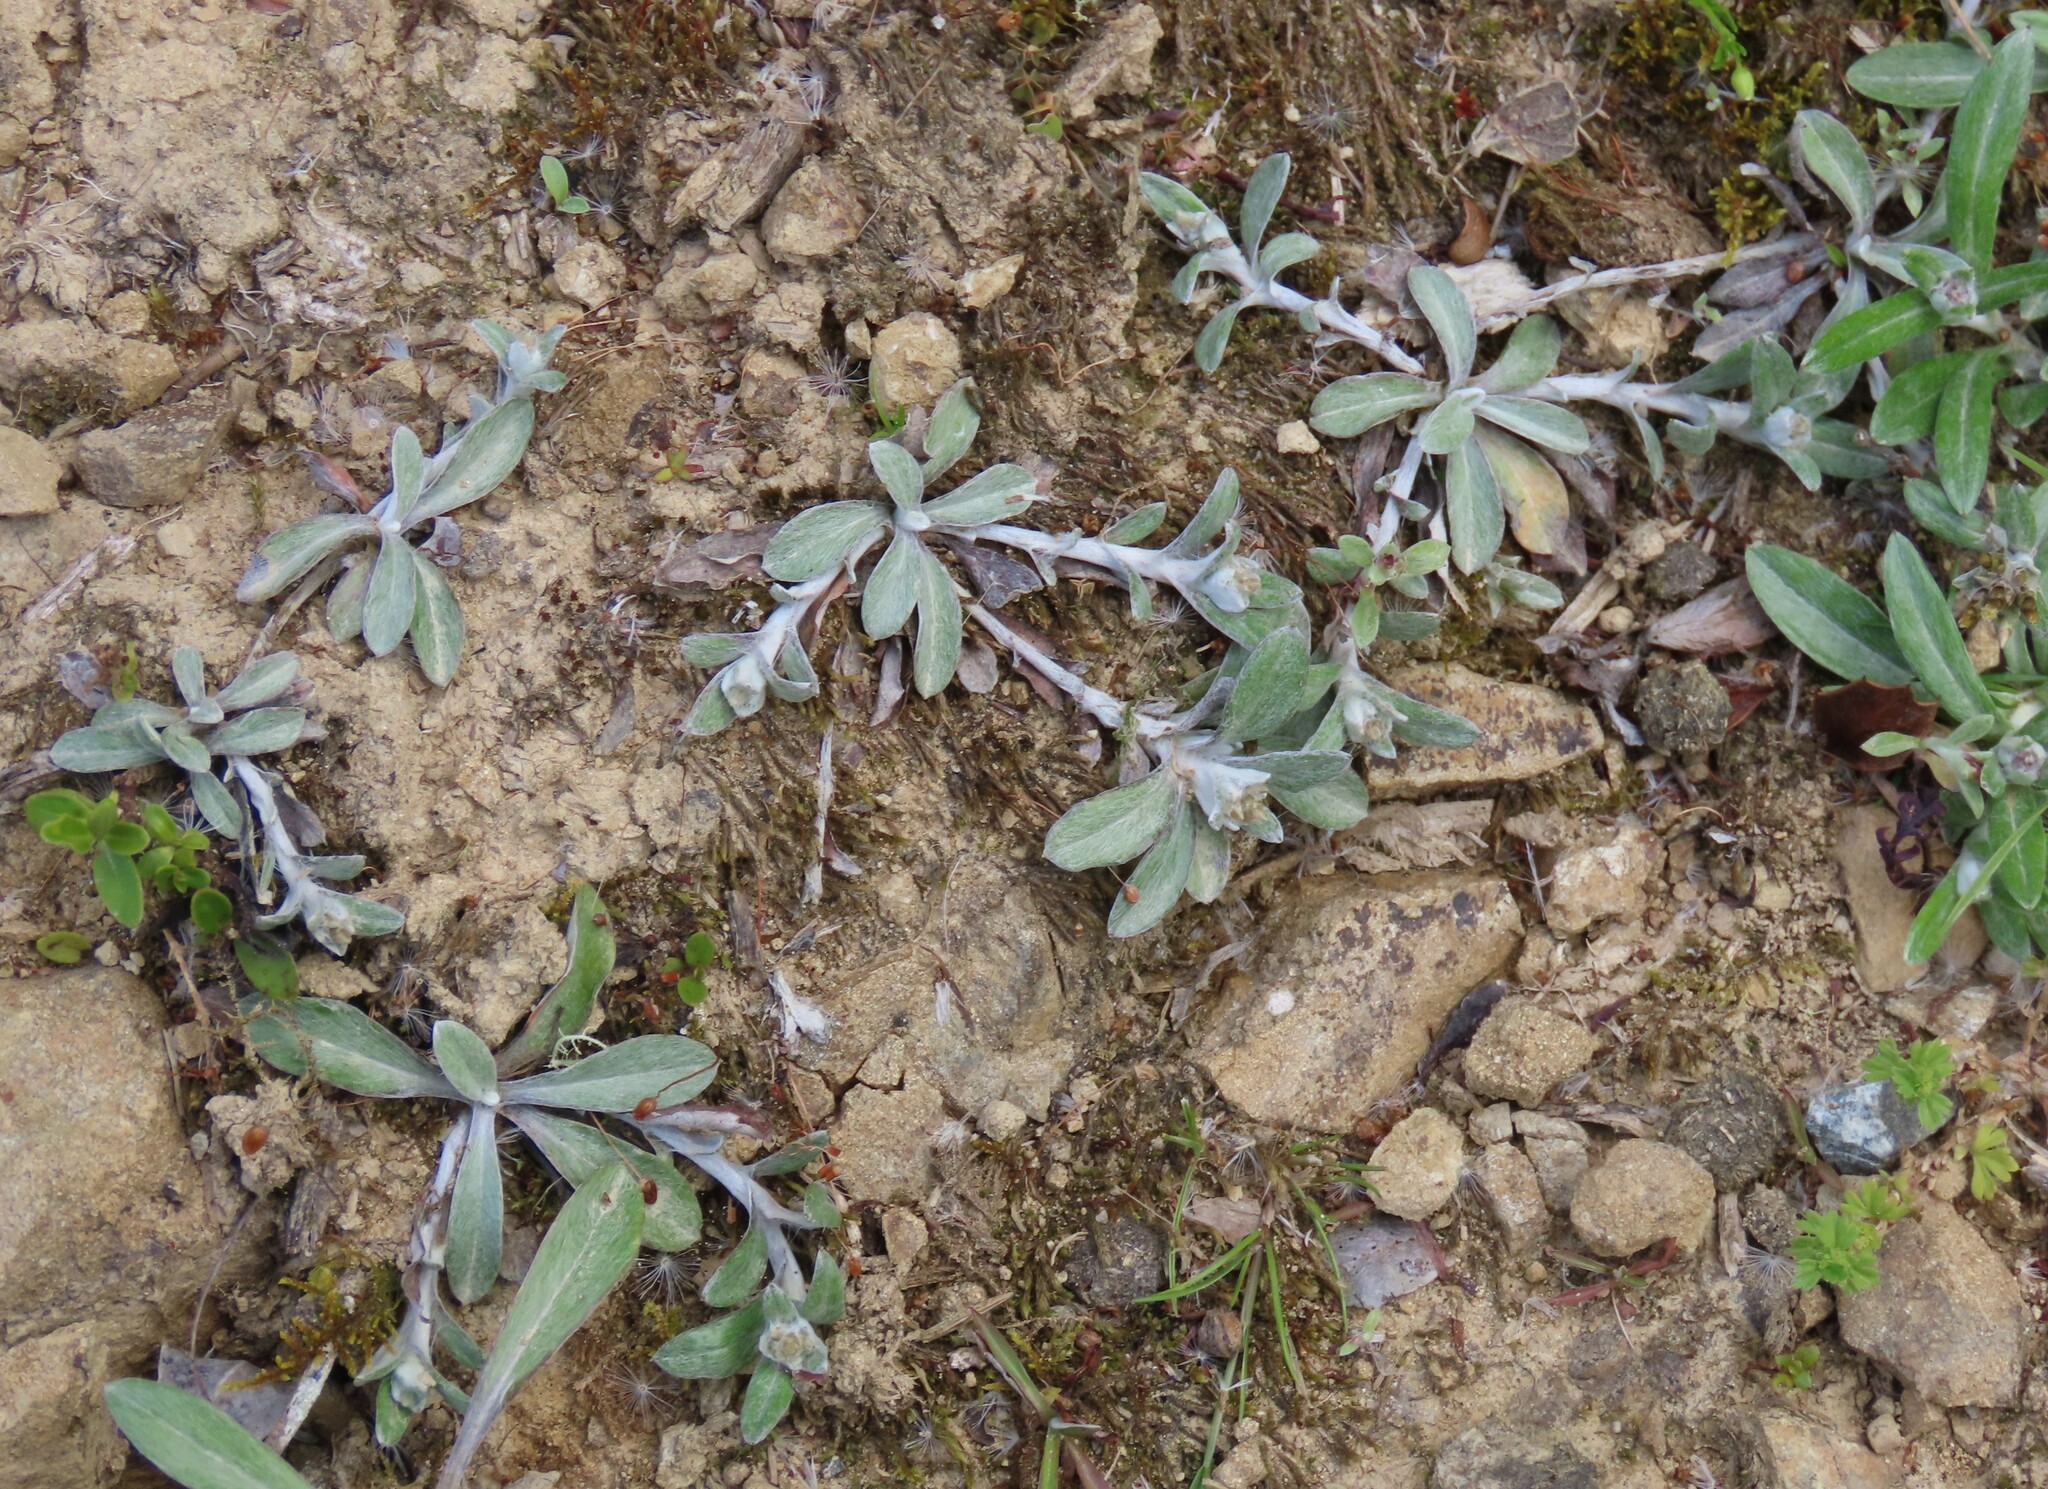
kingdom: Plantae
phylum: Tracheophyta
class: Magnoliopsida
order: Asterales
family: Asteraceae
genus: Euchiton
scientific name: Euchiton audax
